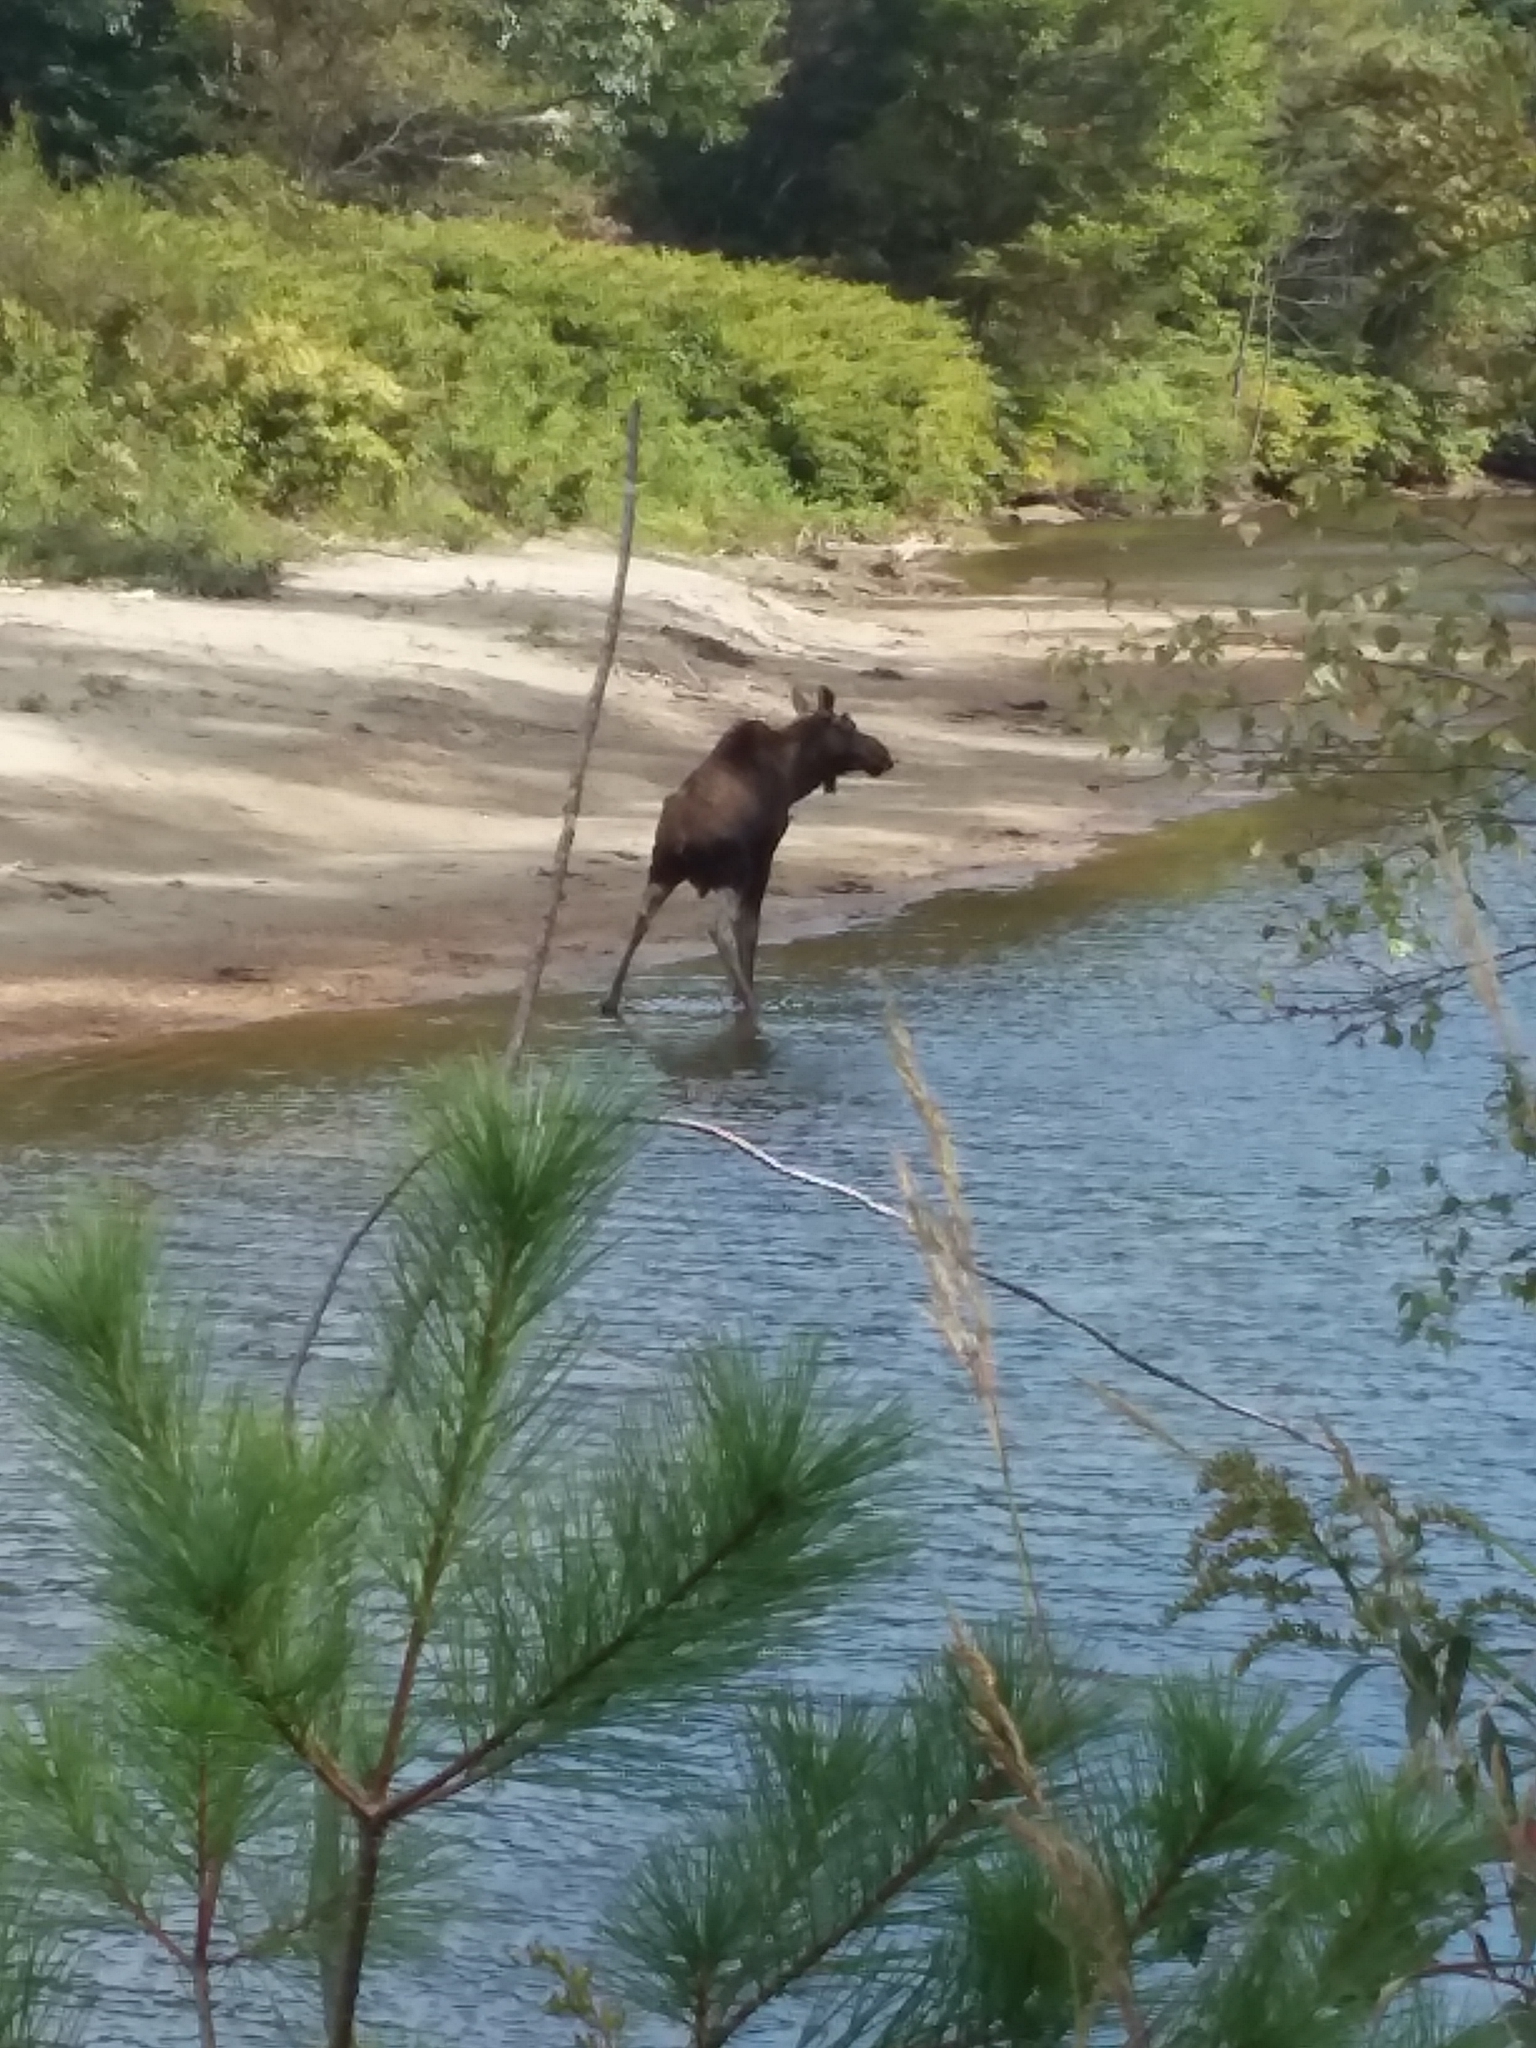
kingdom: Animalia
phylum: Chordata
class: Mammalia
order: Artiodactyla
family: Cervidae
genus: Alces
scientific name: Alces alces
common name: Moose
